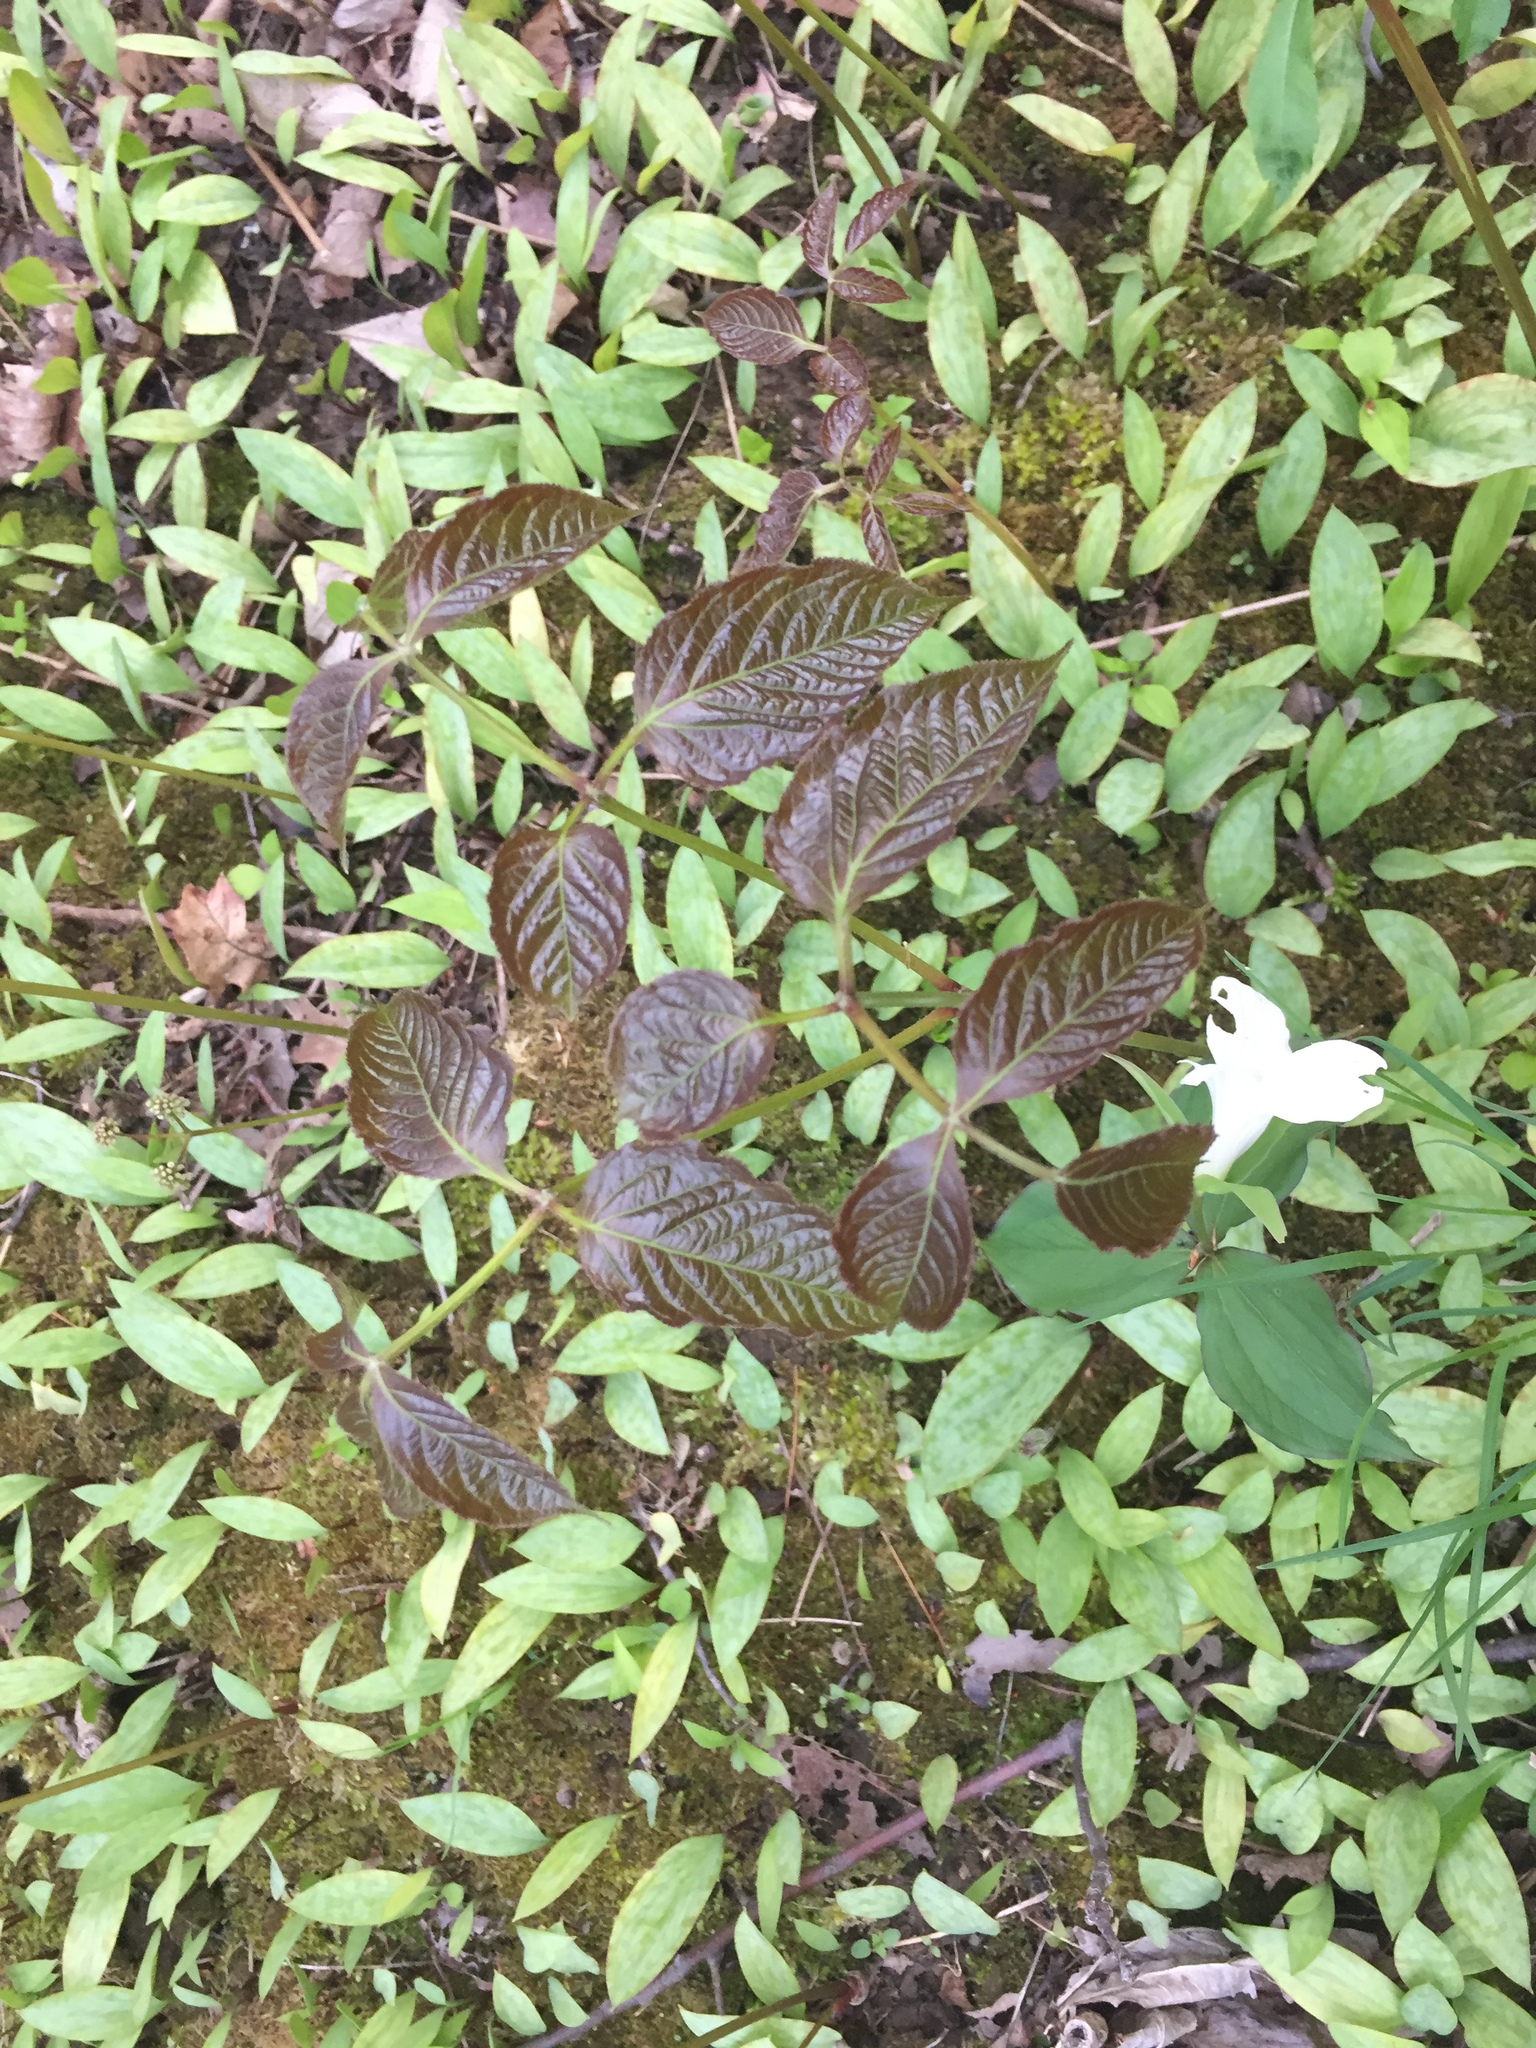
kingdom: Plantae
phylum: Tracheophyta
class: Magnoliopsida
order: Apiales
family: Araliaceae
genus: Aralia
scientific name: Aralia nudicaulis
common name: Wild sarsaparilla
